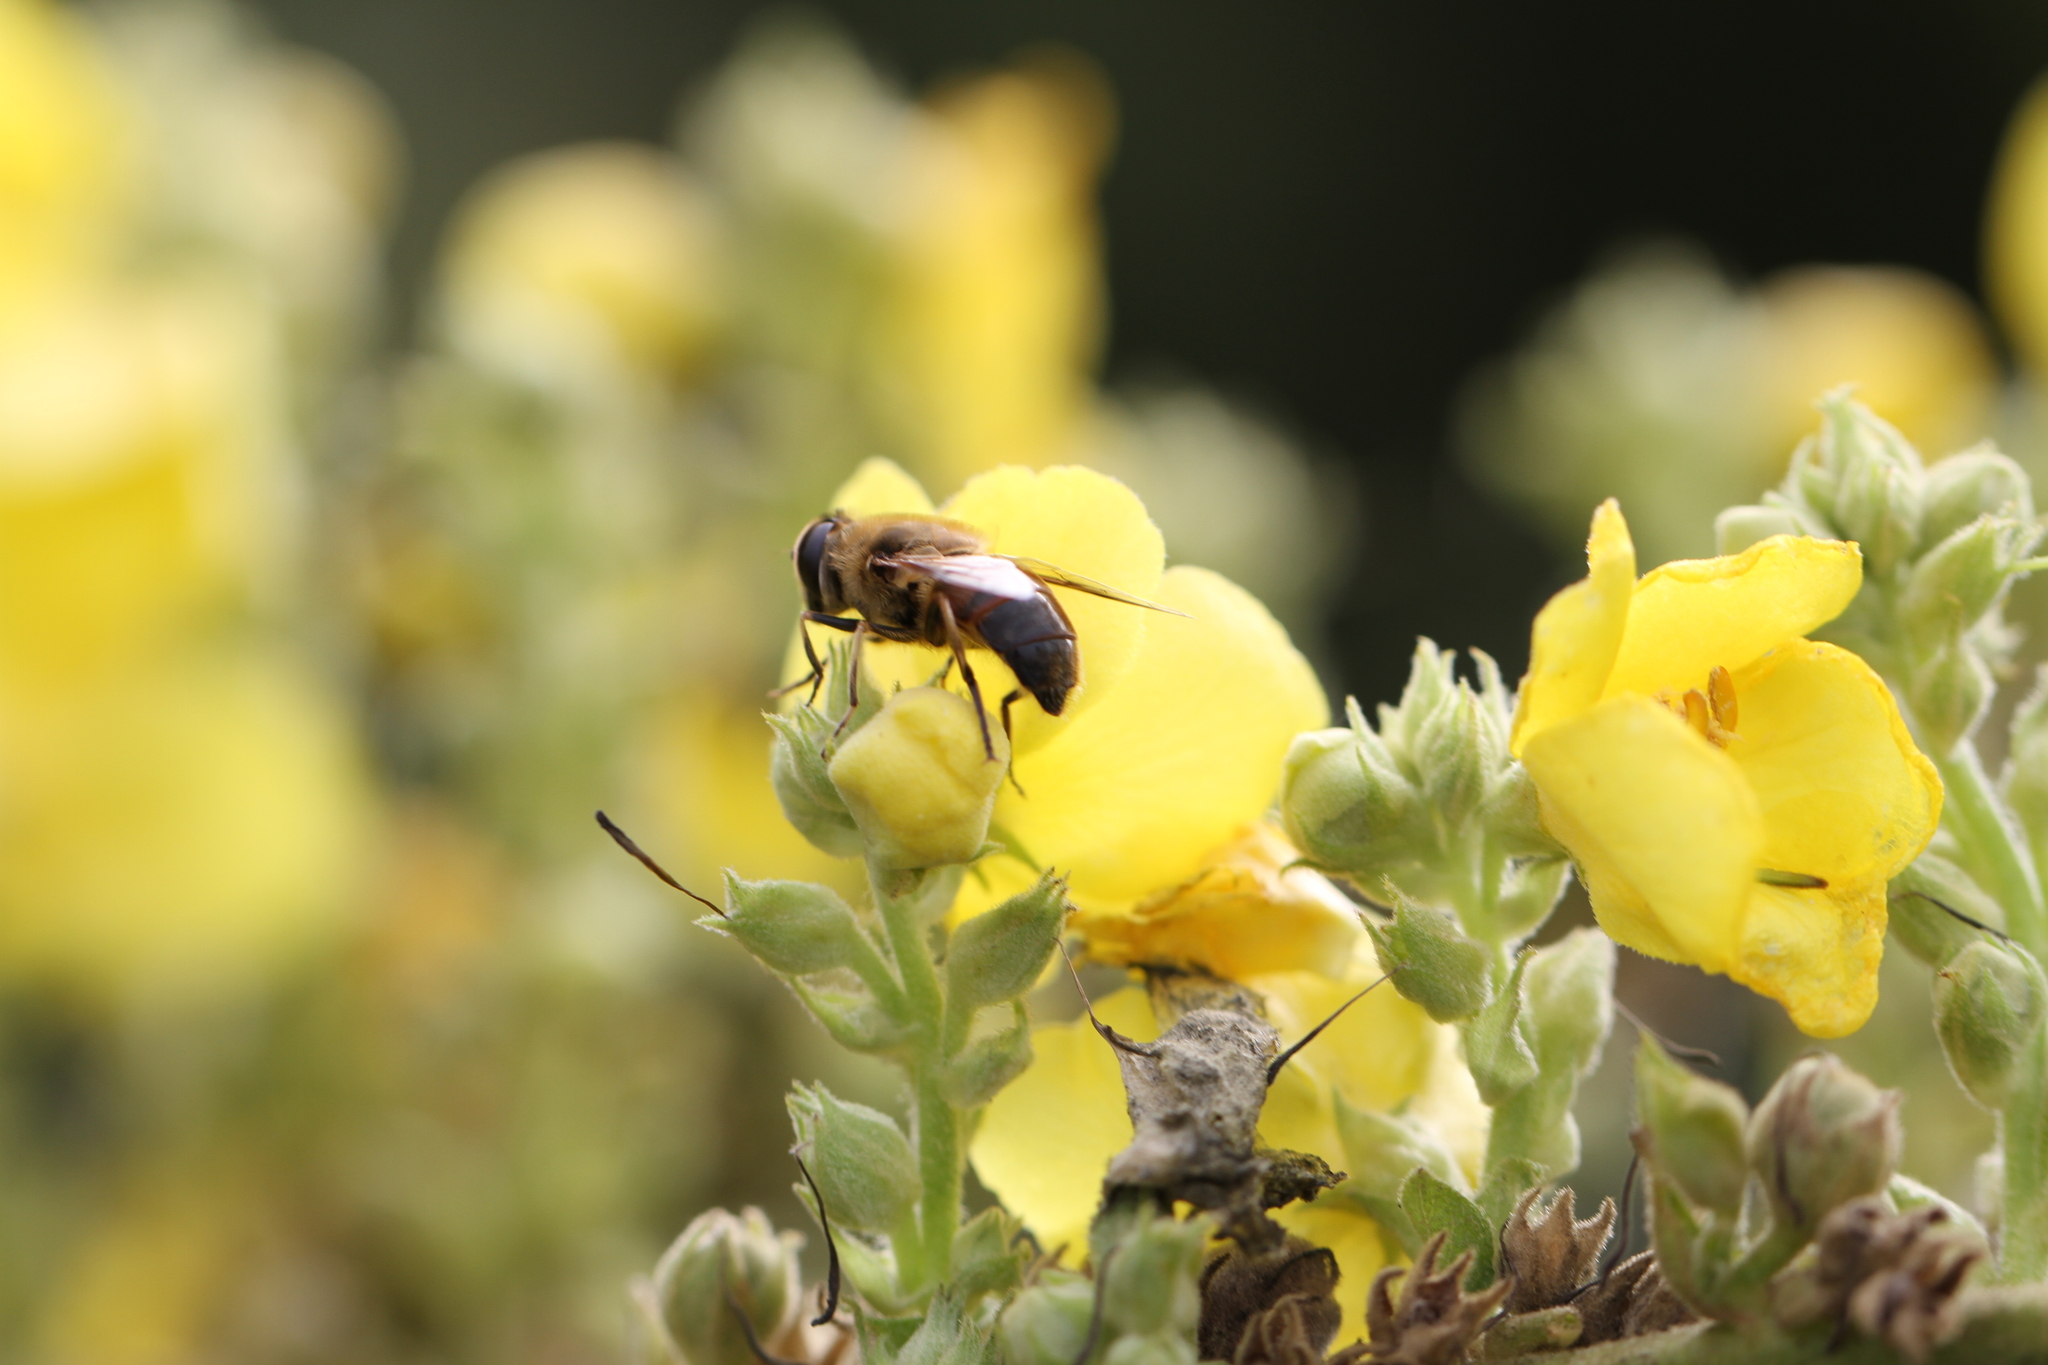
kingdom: Animalia
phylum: Arthropoda
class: Insecta
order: Diptera
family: Syrphidae
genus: Eristalis
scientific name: Eristalis tenax
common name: Drone fly
